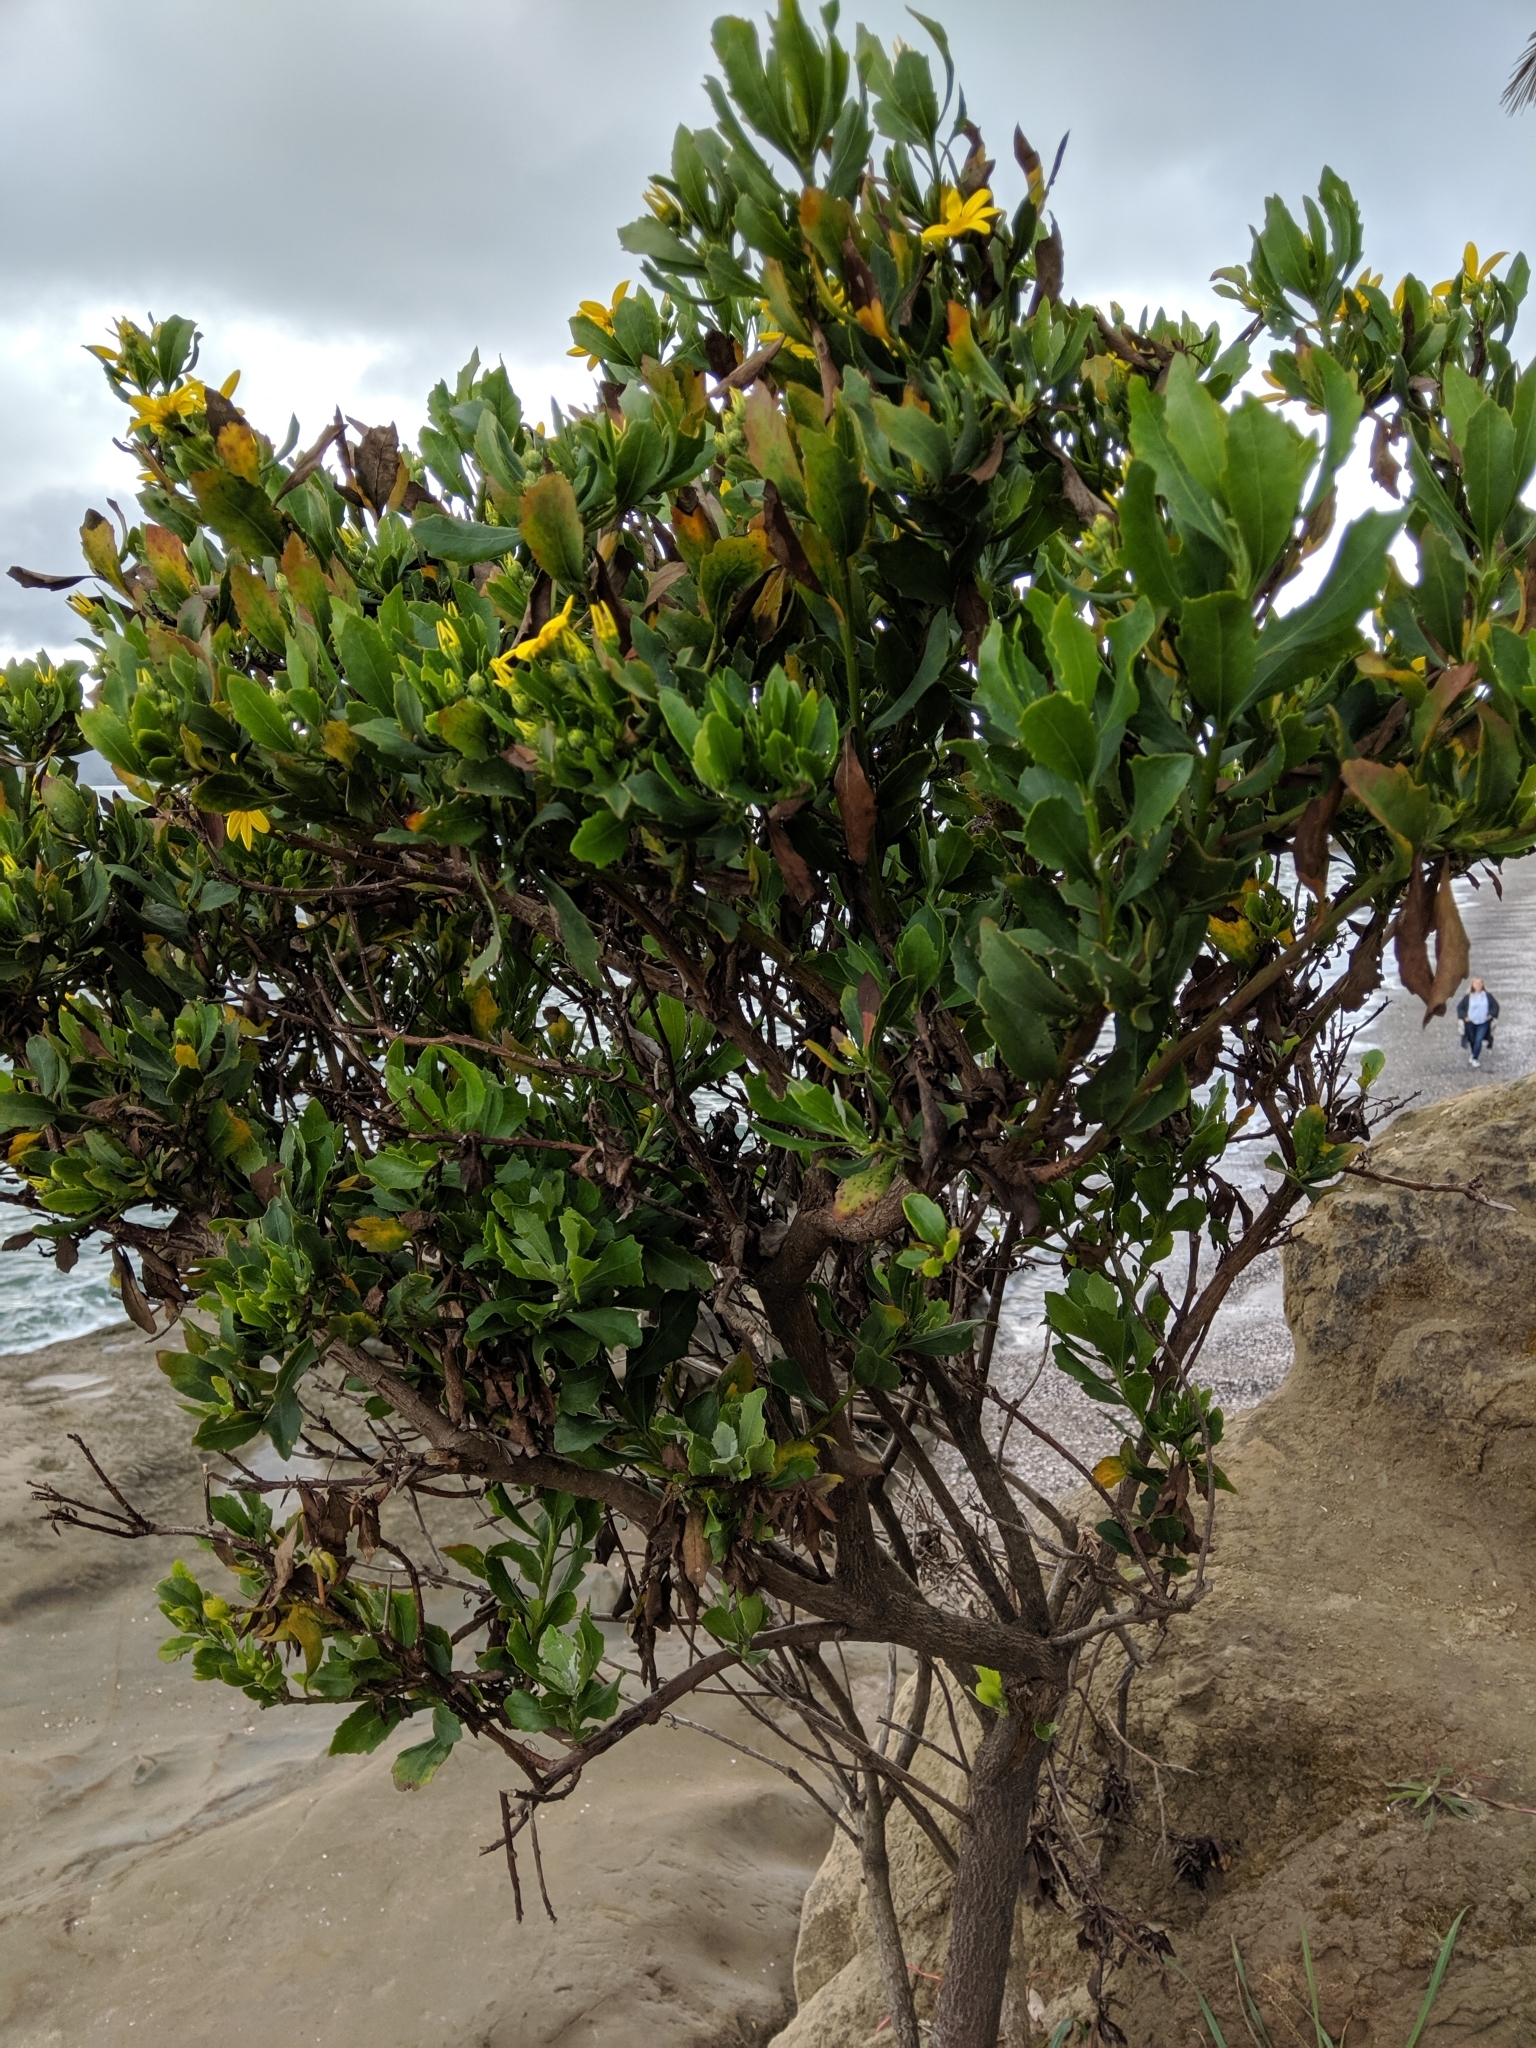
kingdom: Plantae
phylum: Tracheophyta
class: Magnoliopsida
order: Asterales
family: Asteraceae
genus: Osteospermum
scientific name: Osteospermum moniliferum
